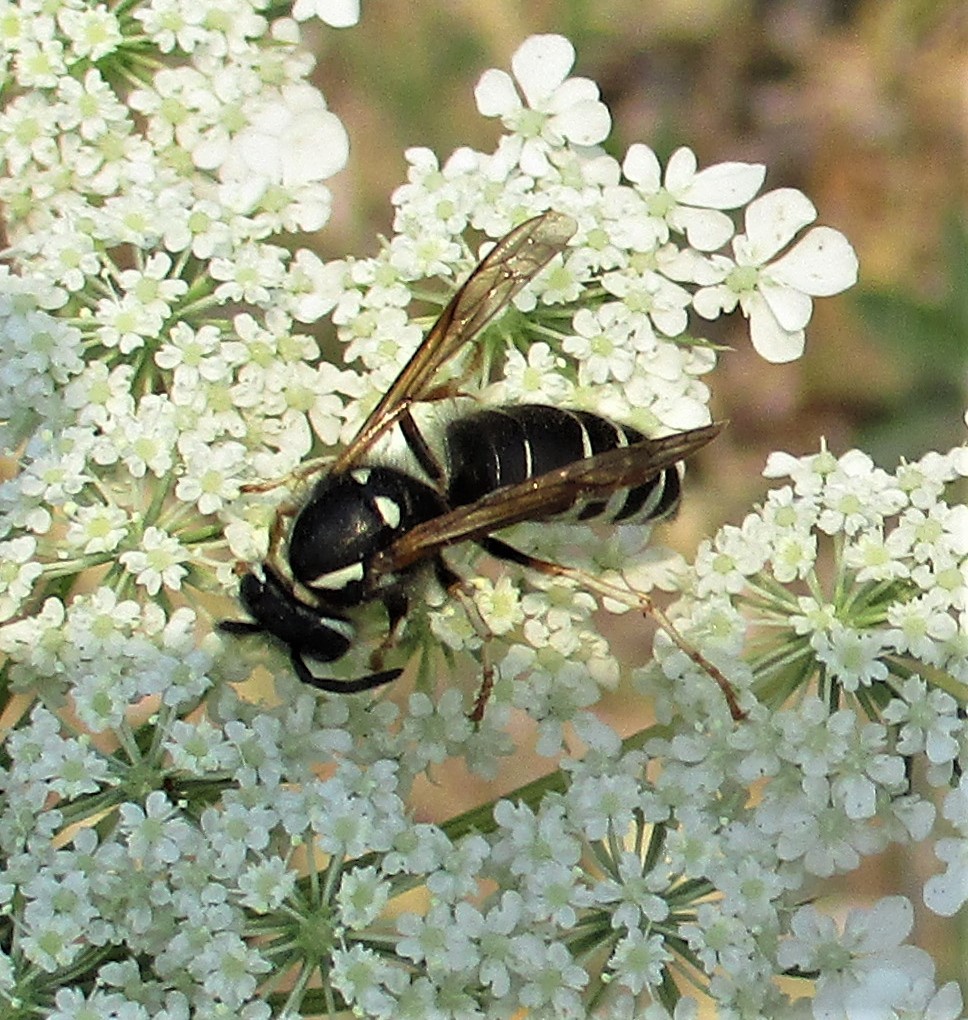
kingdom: Animalia
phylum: Arthropoda
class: Insecta
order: Hymenoptera
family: Vespidae
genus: Vespula
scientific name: Vespula consobrina
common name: Blackjacket
